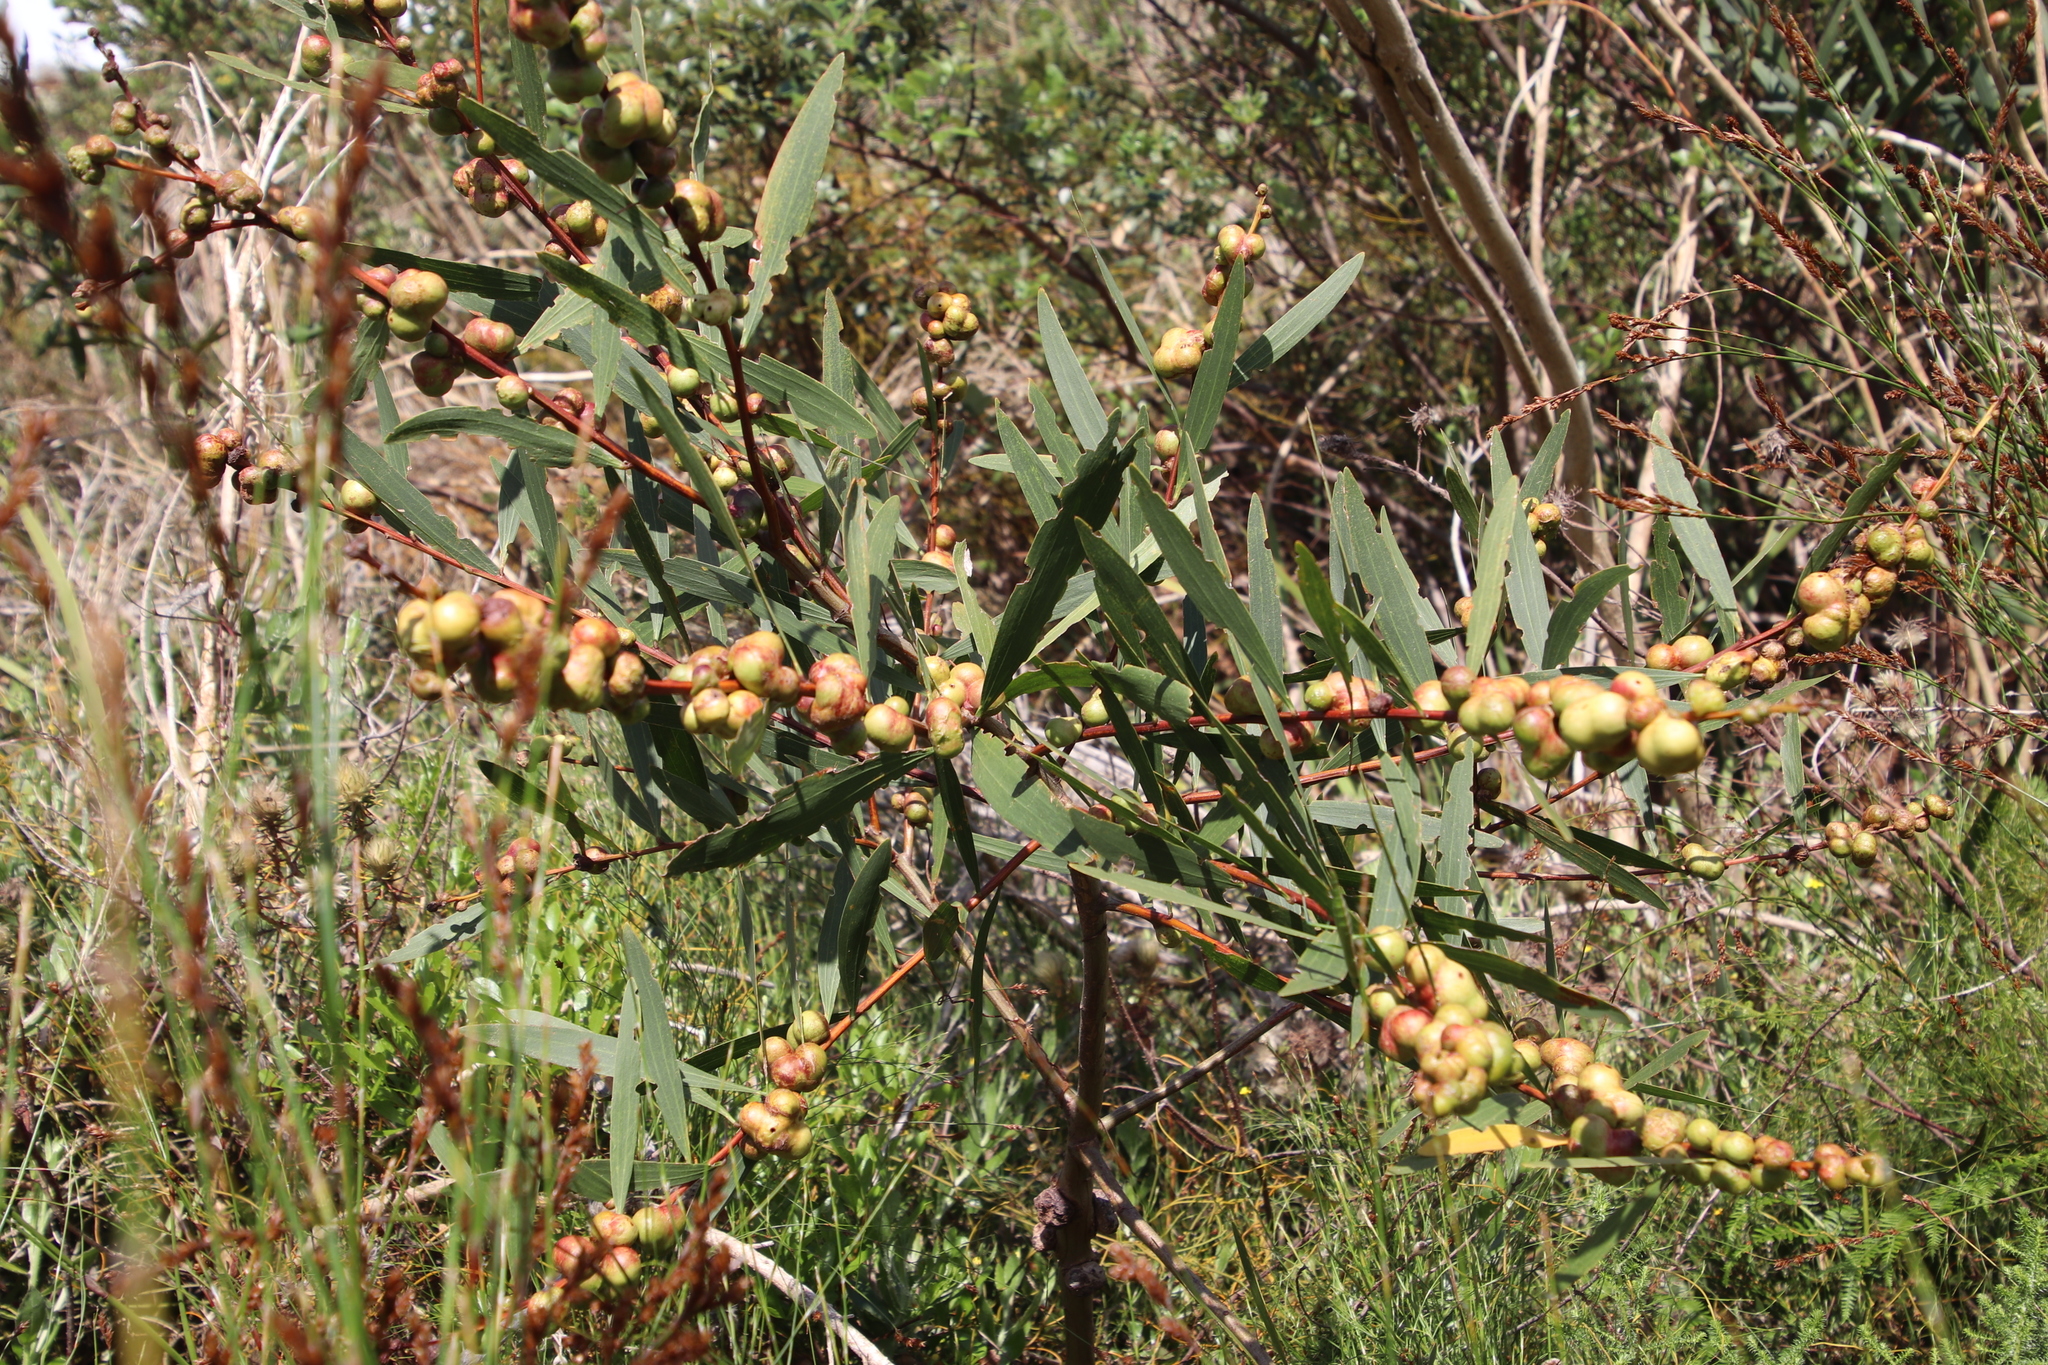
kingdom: Plantae
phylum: Tracheophyta
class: Magnoliopsida
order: Fabales
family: Fabaceae
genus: Acacia
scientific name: Acacia longifolia
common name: Sydney golden wattle
